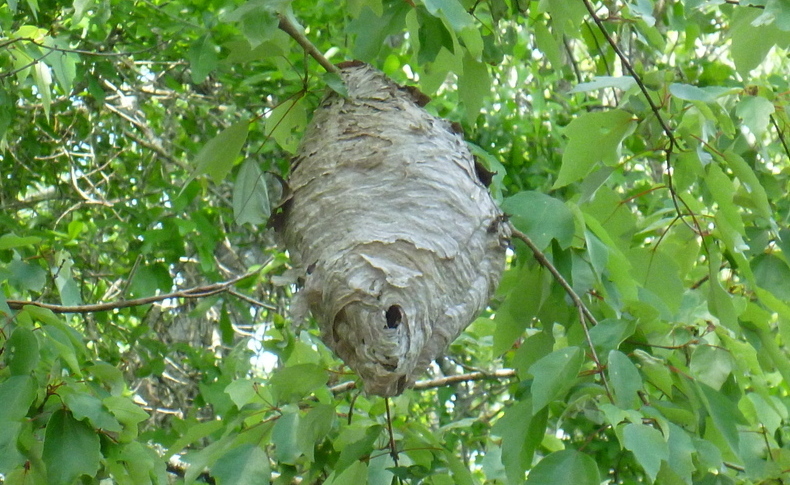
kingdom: Animalia
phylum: Arthropoda
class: Insecta
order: Hymenoptera
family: Vespidae
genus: Dolichovespula
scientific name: Dolichovespula maculata
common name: Bald-faced hornet
